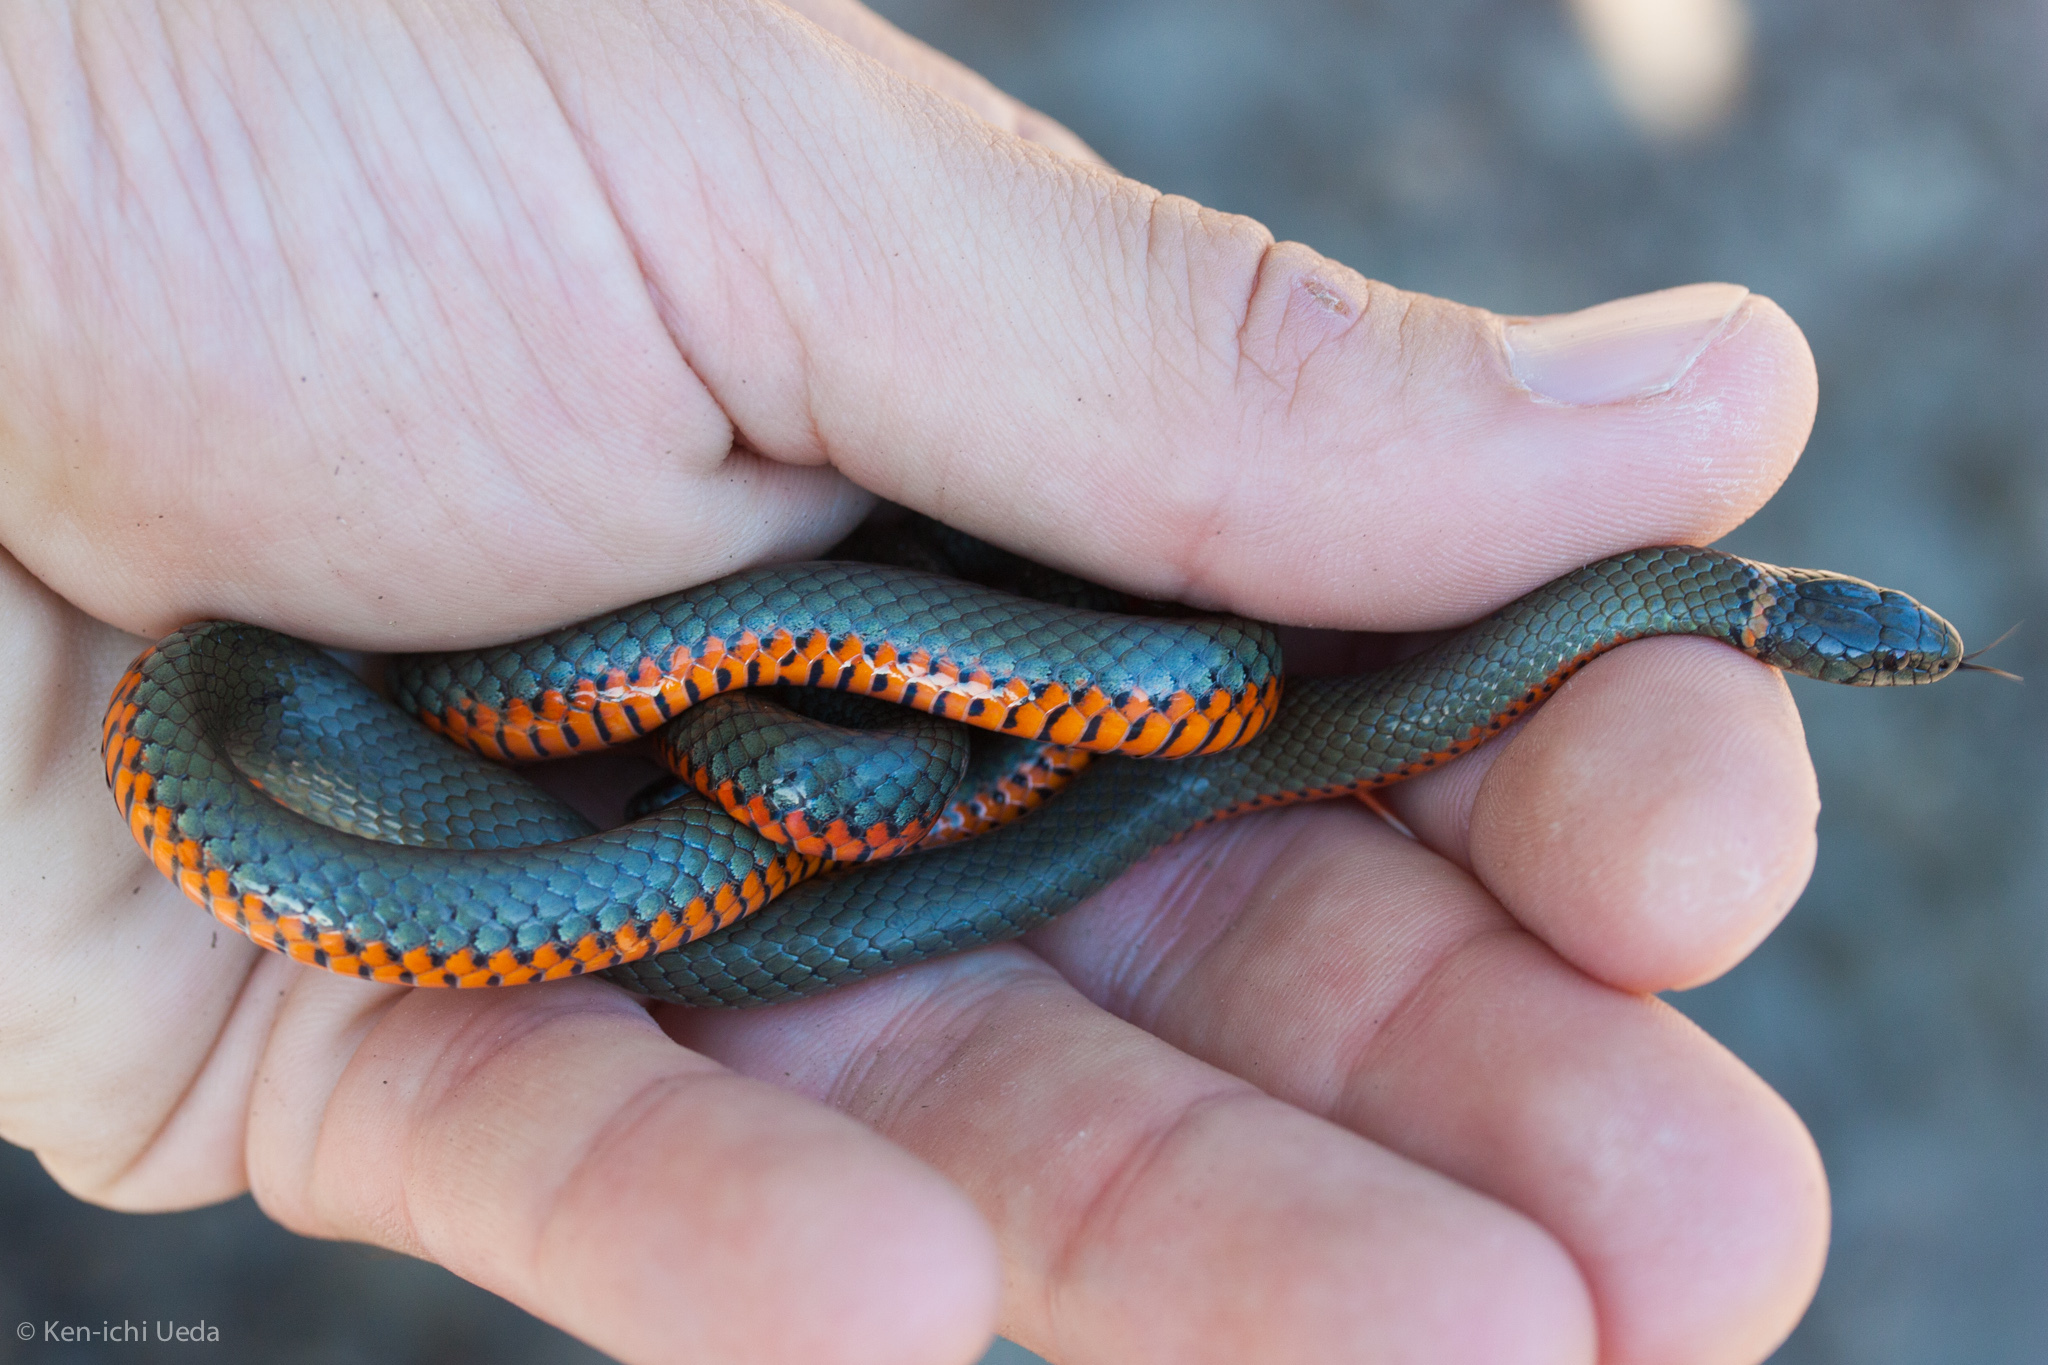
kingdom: Animalia
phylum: Chordata
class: Squamata
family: Colubridae
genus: Diadophis
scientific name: Diadophis punctatus
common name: Ringneck snake
